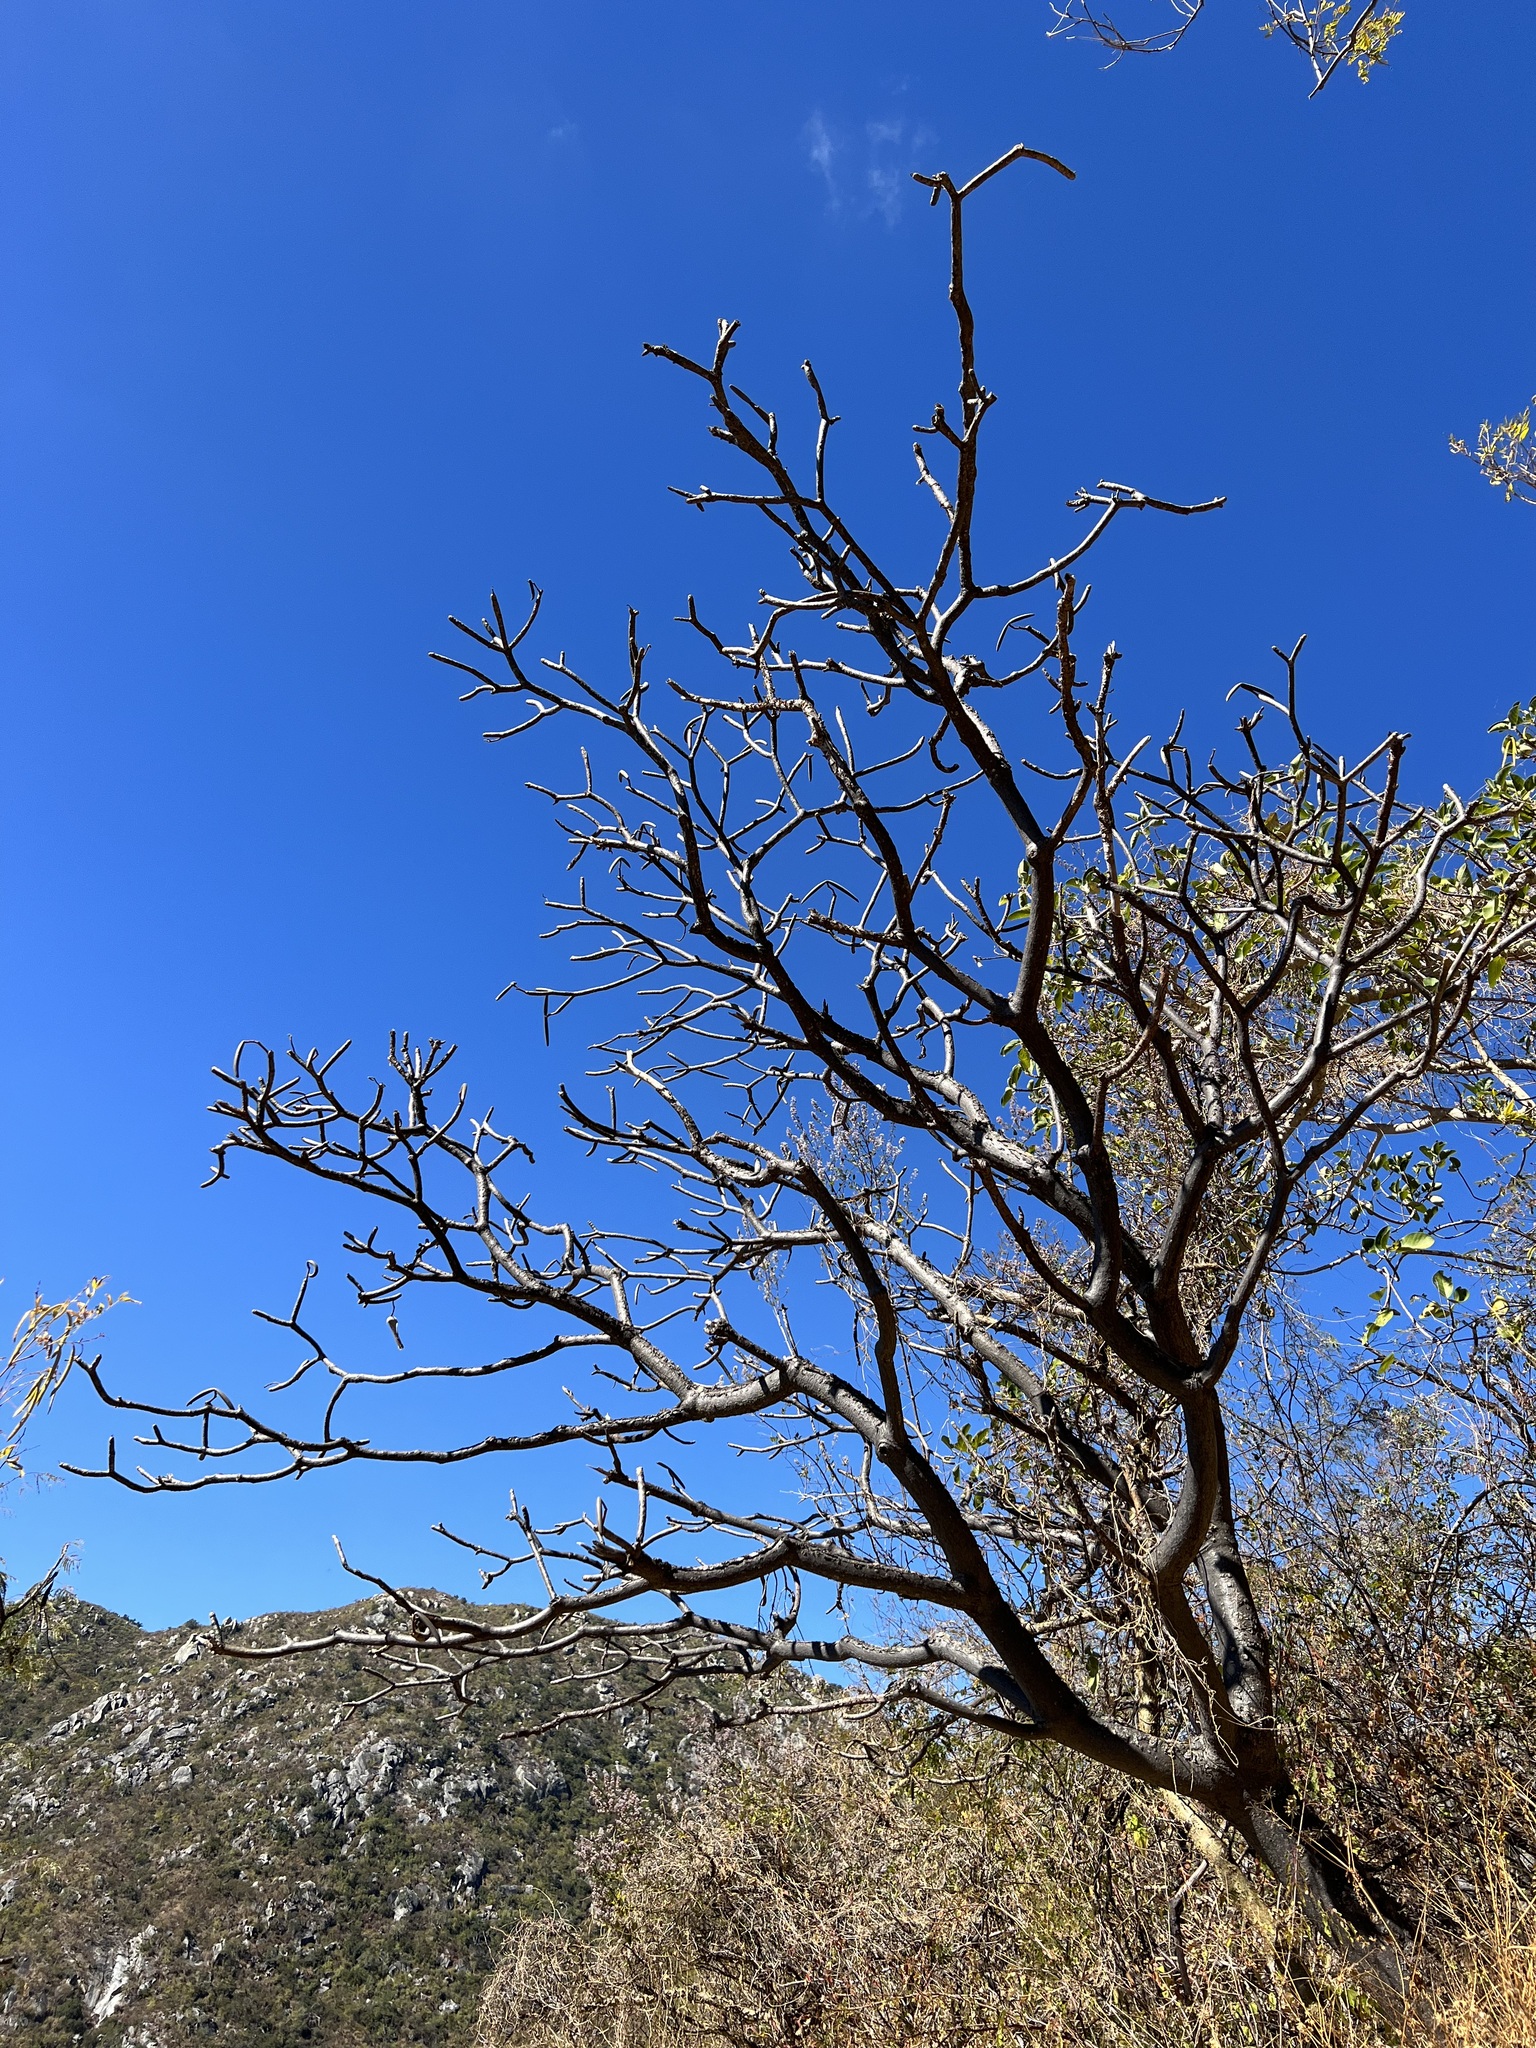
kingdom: Plantae
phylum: Tracheophyta
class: Magnoliopsida
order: Gentianales
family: Apocynaceae
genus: Plumeria
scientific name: Plumeria rubra
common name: Pagoda-tree
